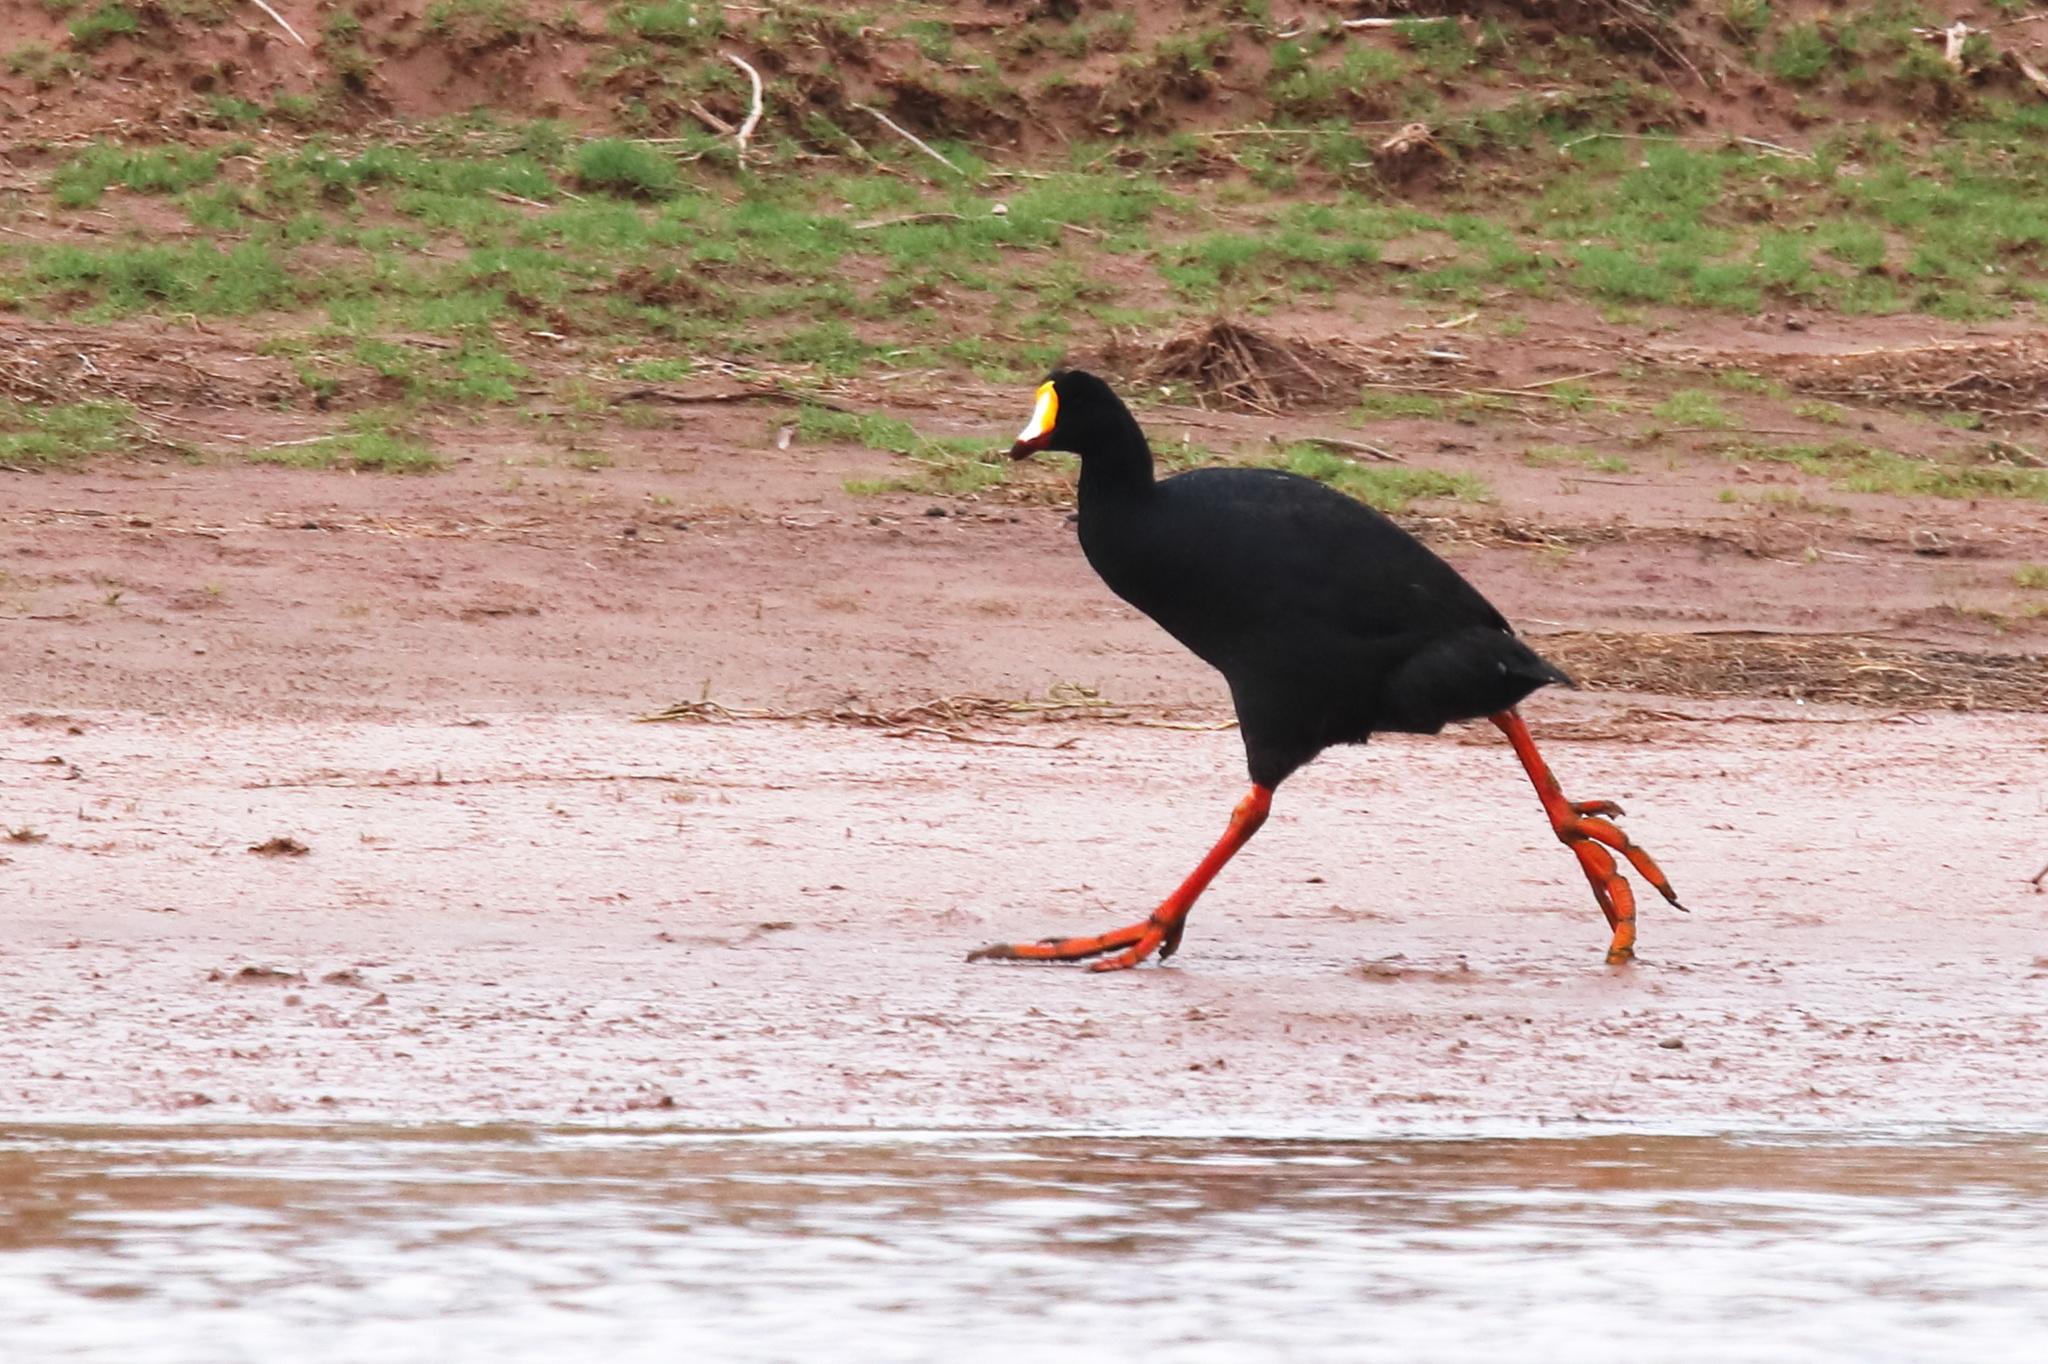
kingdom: Animalia
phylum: Chordata
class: Aves
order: Gruiformes
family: Rallidae
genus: Fulica
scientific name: Fulica gigantea
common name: Giant coot
